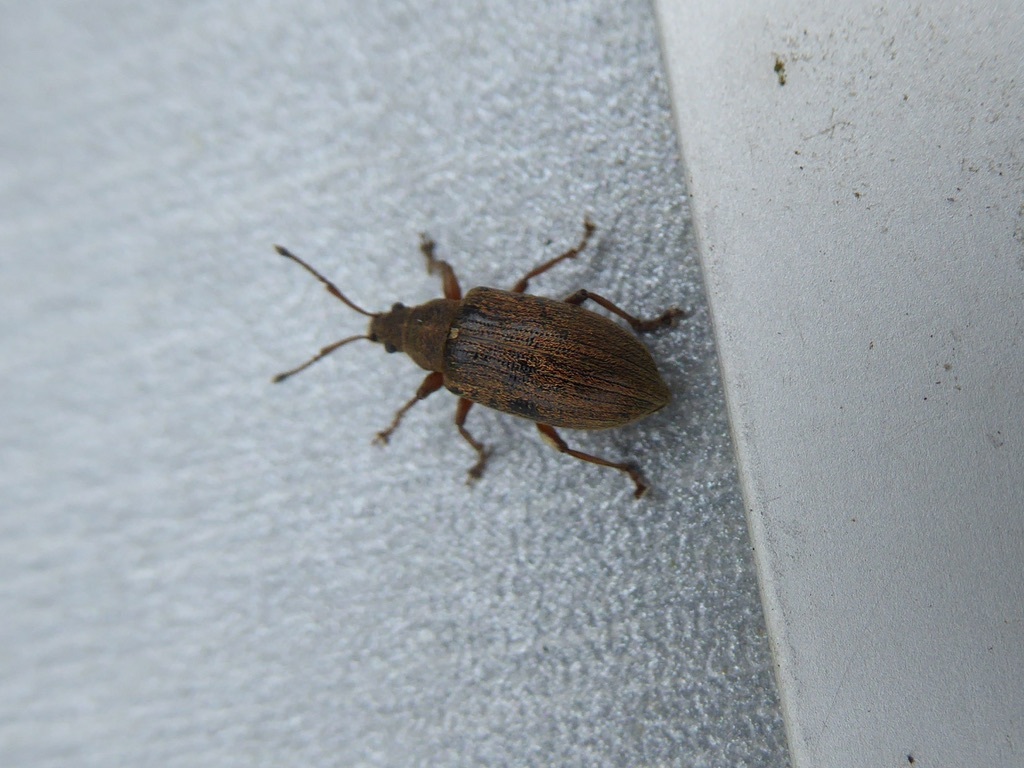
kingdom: Animalia
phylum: Arthropoda
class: Insecta
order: Coleoptera
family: Curculionidae
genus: Phyllobius
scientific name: Phyllobius pyri
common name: Common leaf weevil
